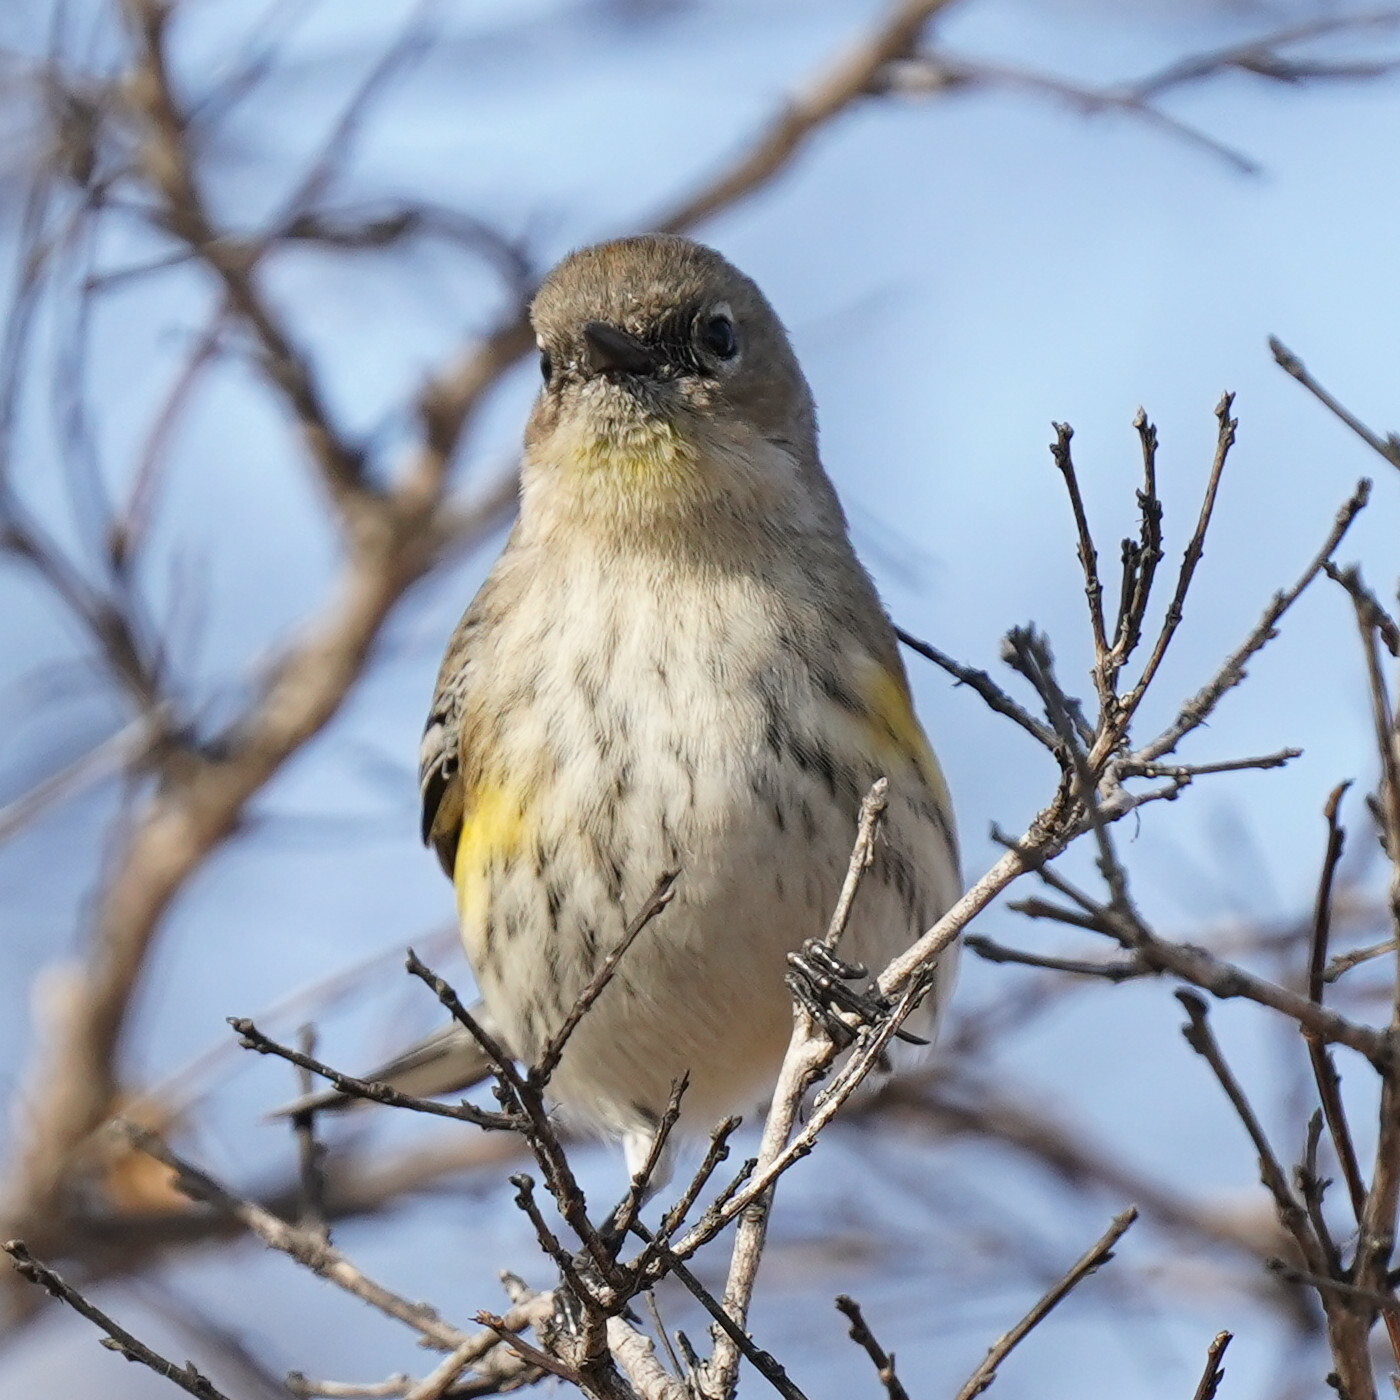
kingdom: Animalia
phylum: Chordata
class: Aves
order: Passeriformes
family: Parulidae
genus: Setophaga
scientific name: Setophaga coronata
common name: Myrtle warbler
